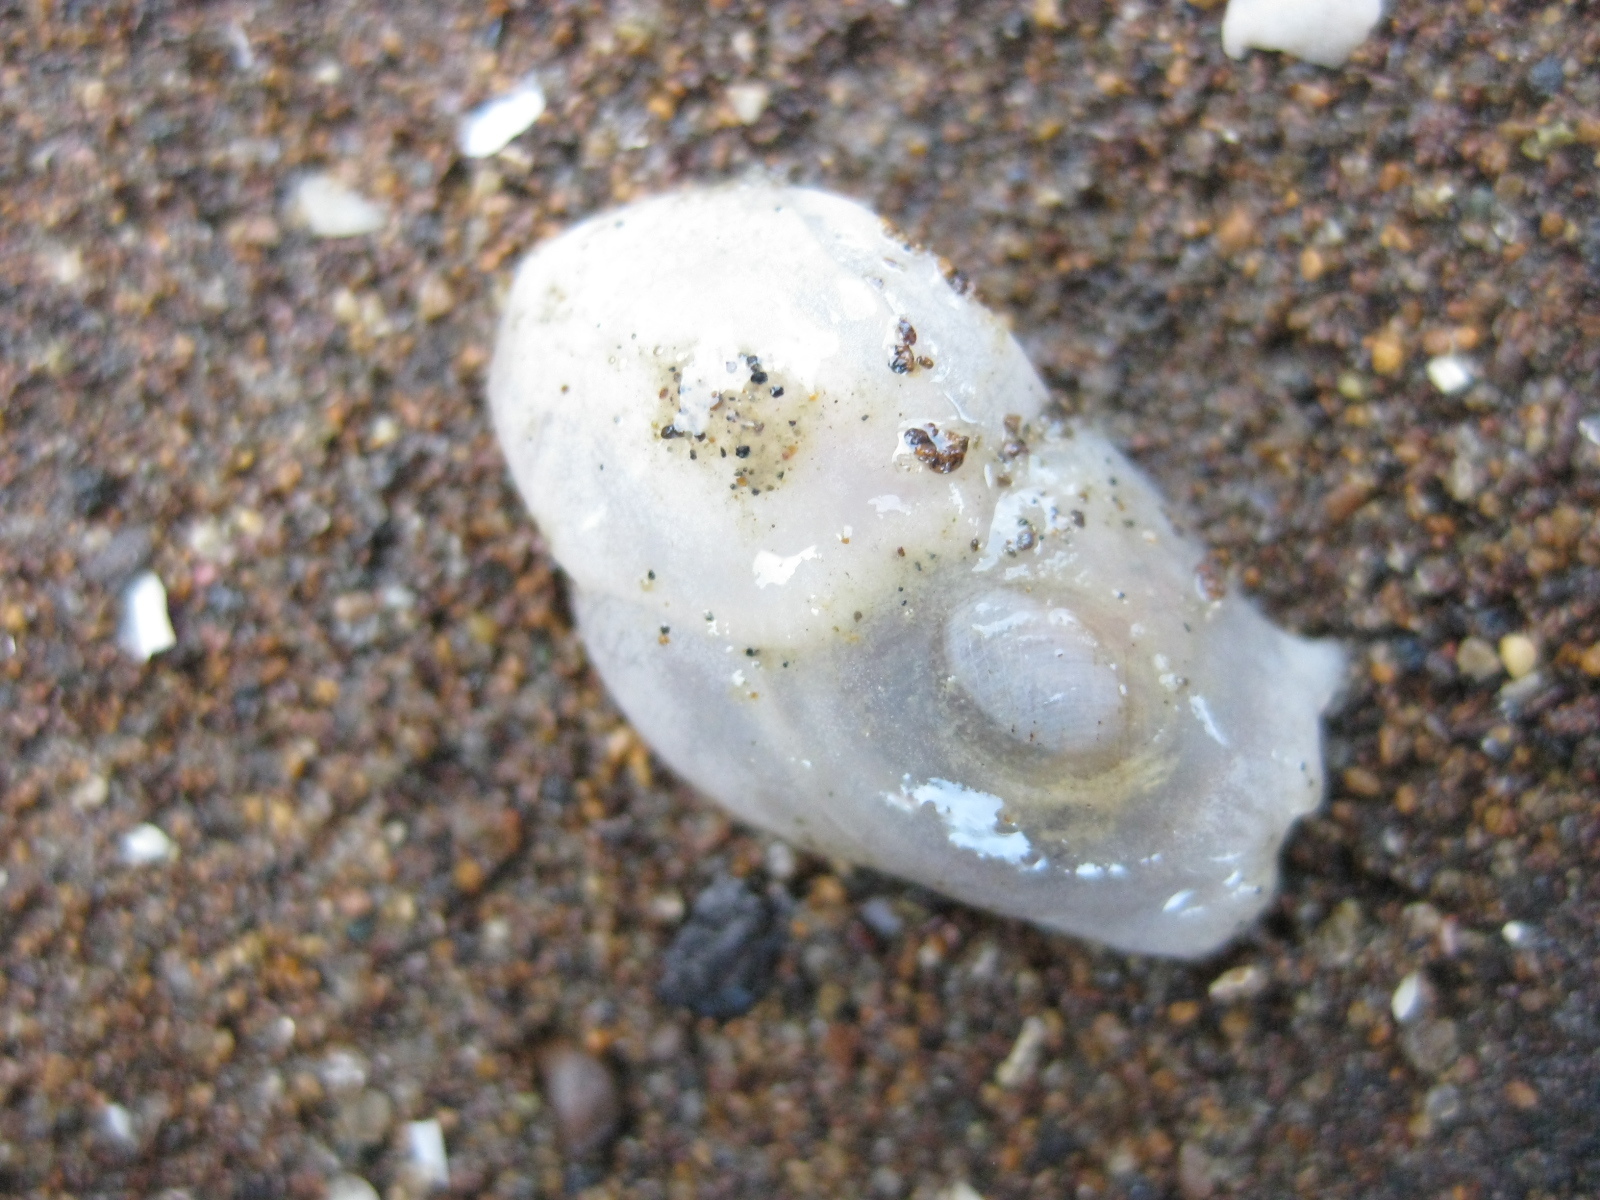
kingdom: Animalia
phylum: Mollusca
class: Gastropoda
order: Cephalaspidea
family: Philinidae
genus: Philine
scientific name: Philine
